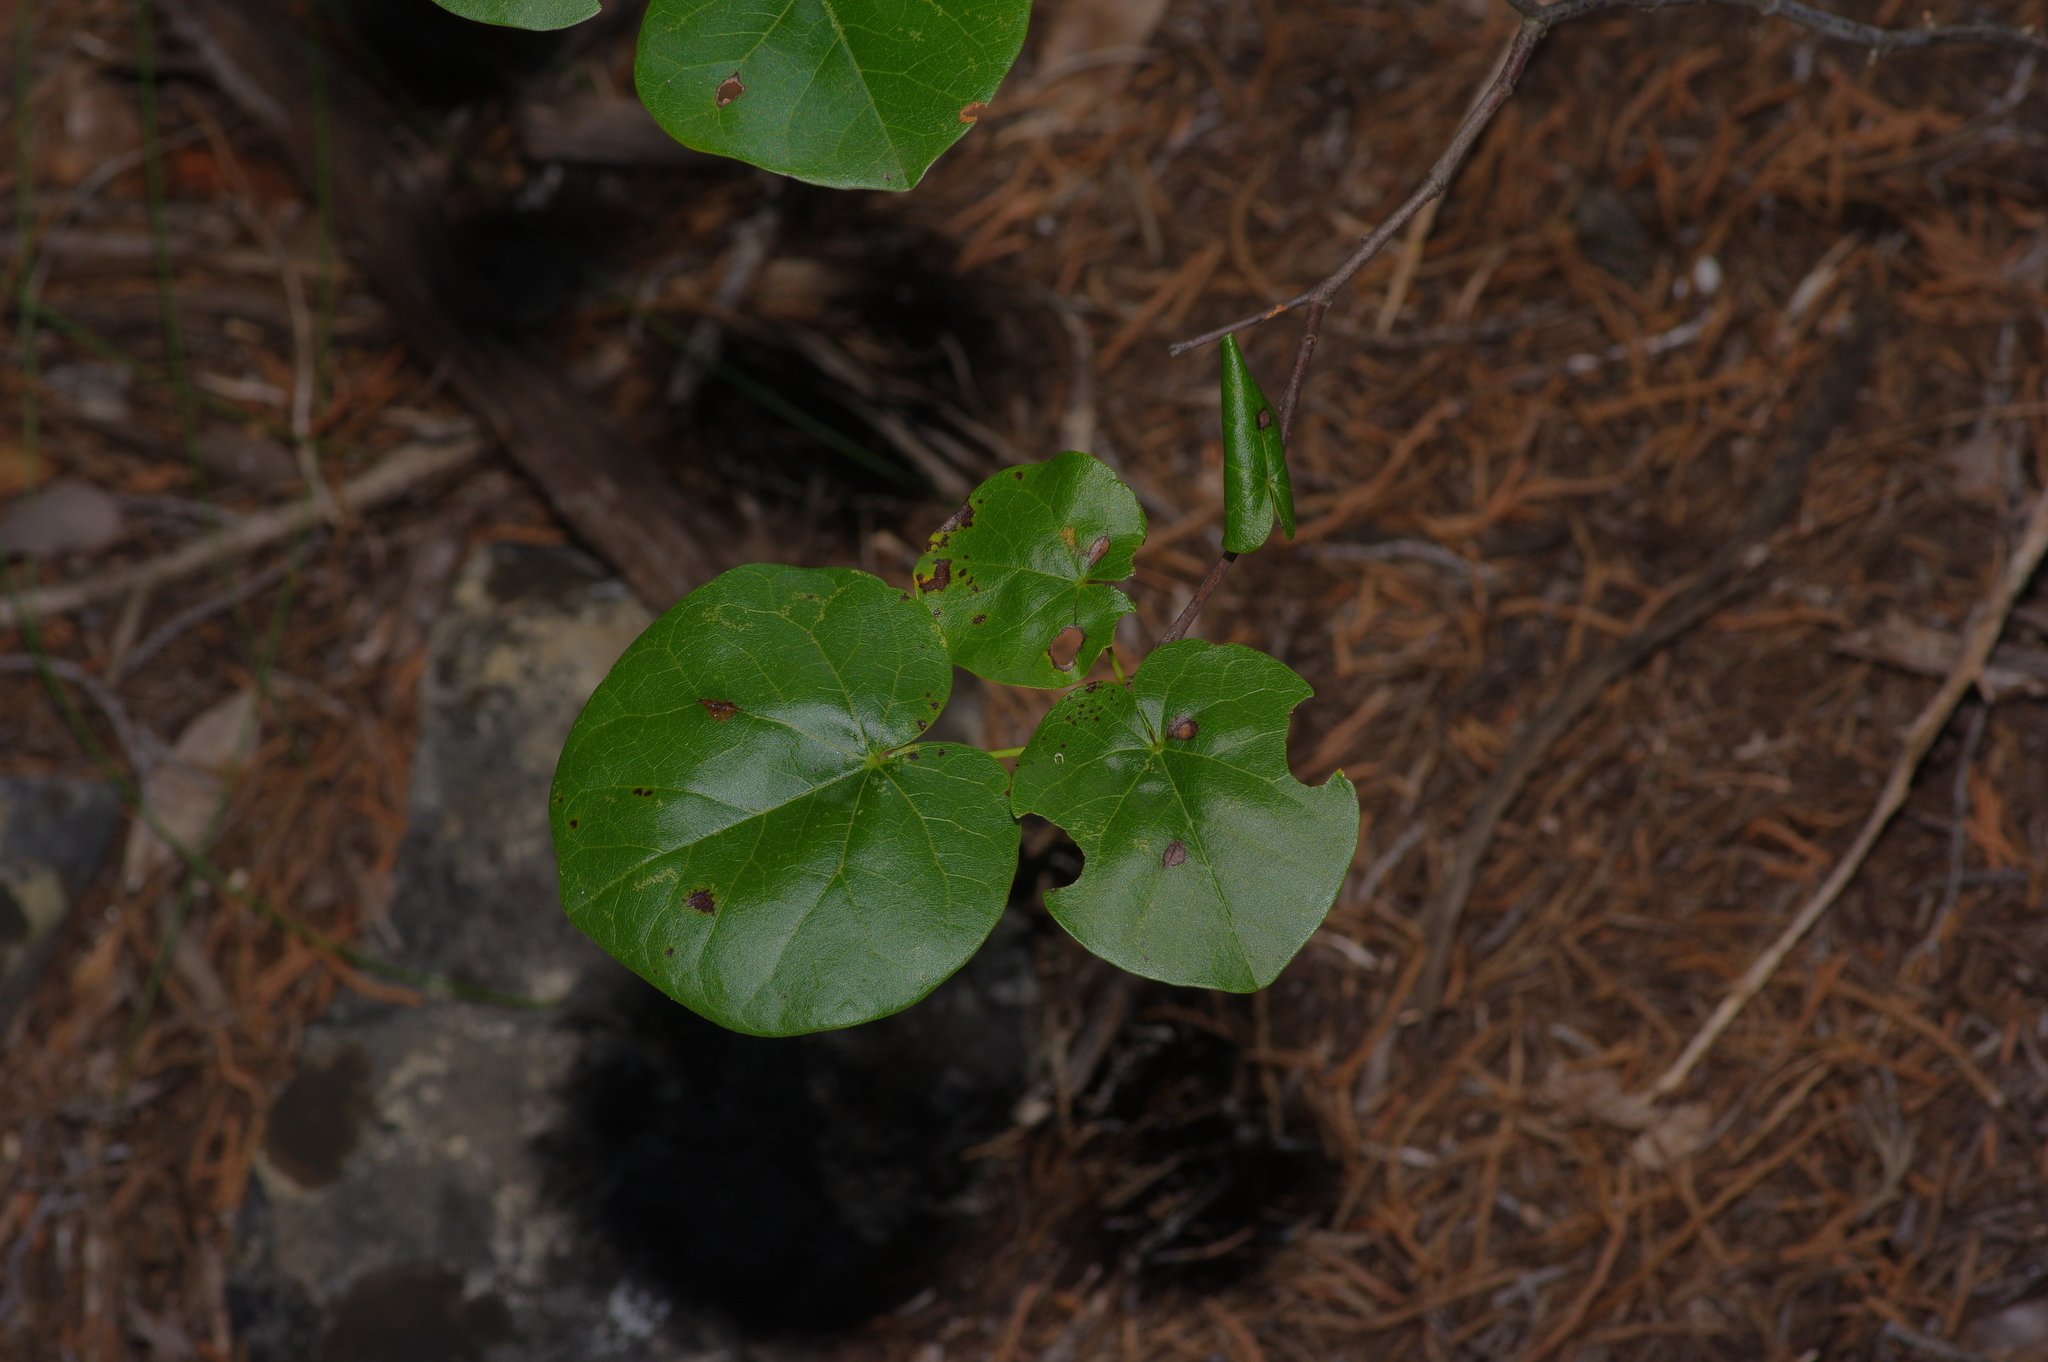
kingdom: Plantae
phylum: Tracheophyta
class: Magnoliopsida
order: Fabales
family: Fabaceae
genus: Cercis
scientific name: Cercis canadensis
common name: Eastern redbud
